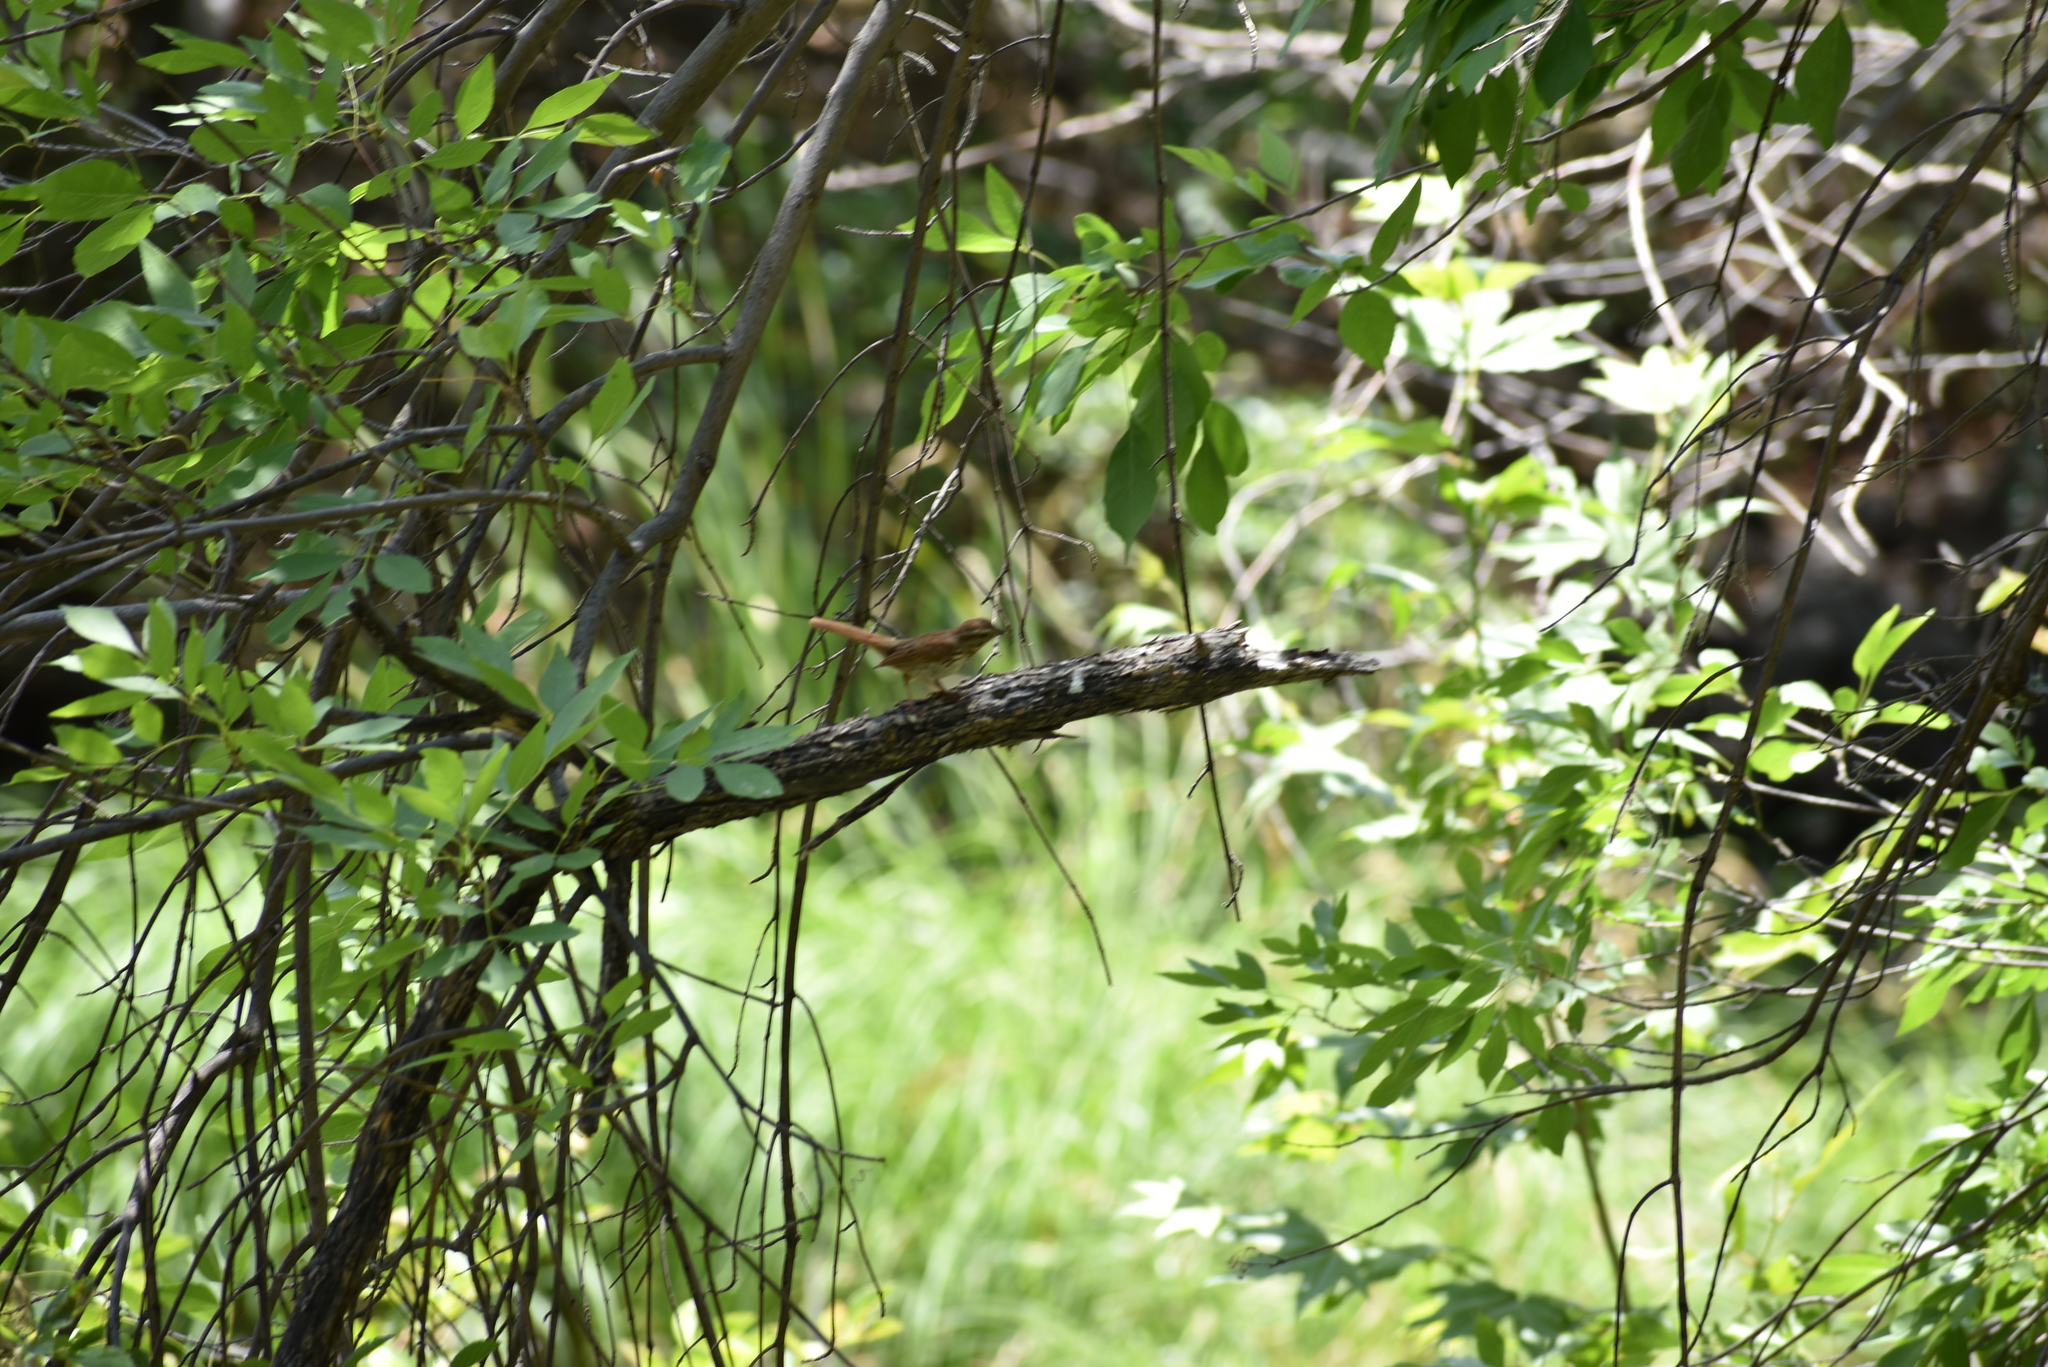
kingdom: Animalia
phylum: Chordata
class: Aves
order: Passeriformes
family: Passerellidae
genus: Melospiza
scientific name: Melospiza melodia
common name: Song sparrow
